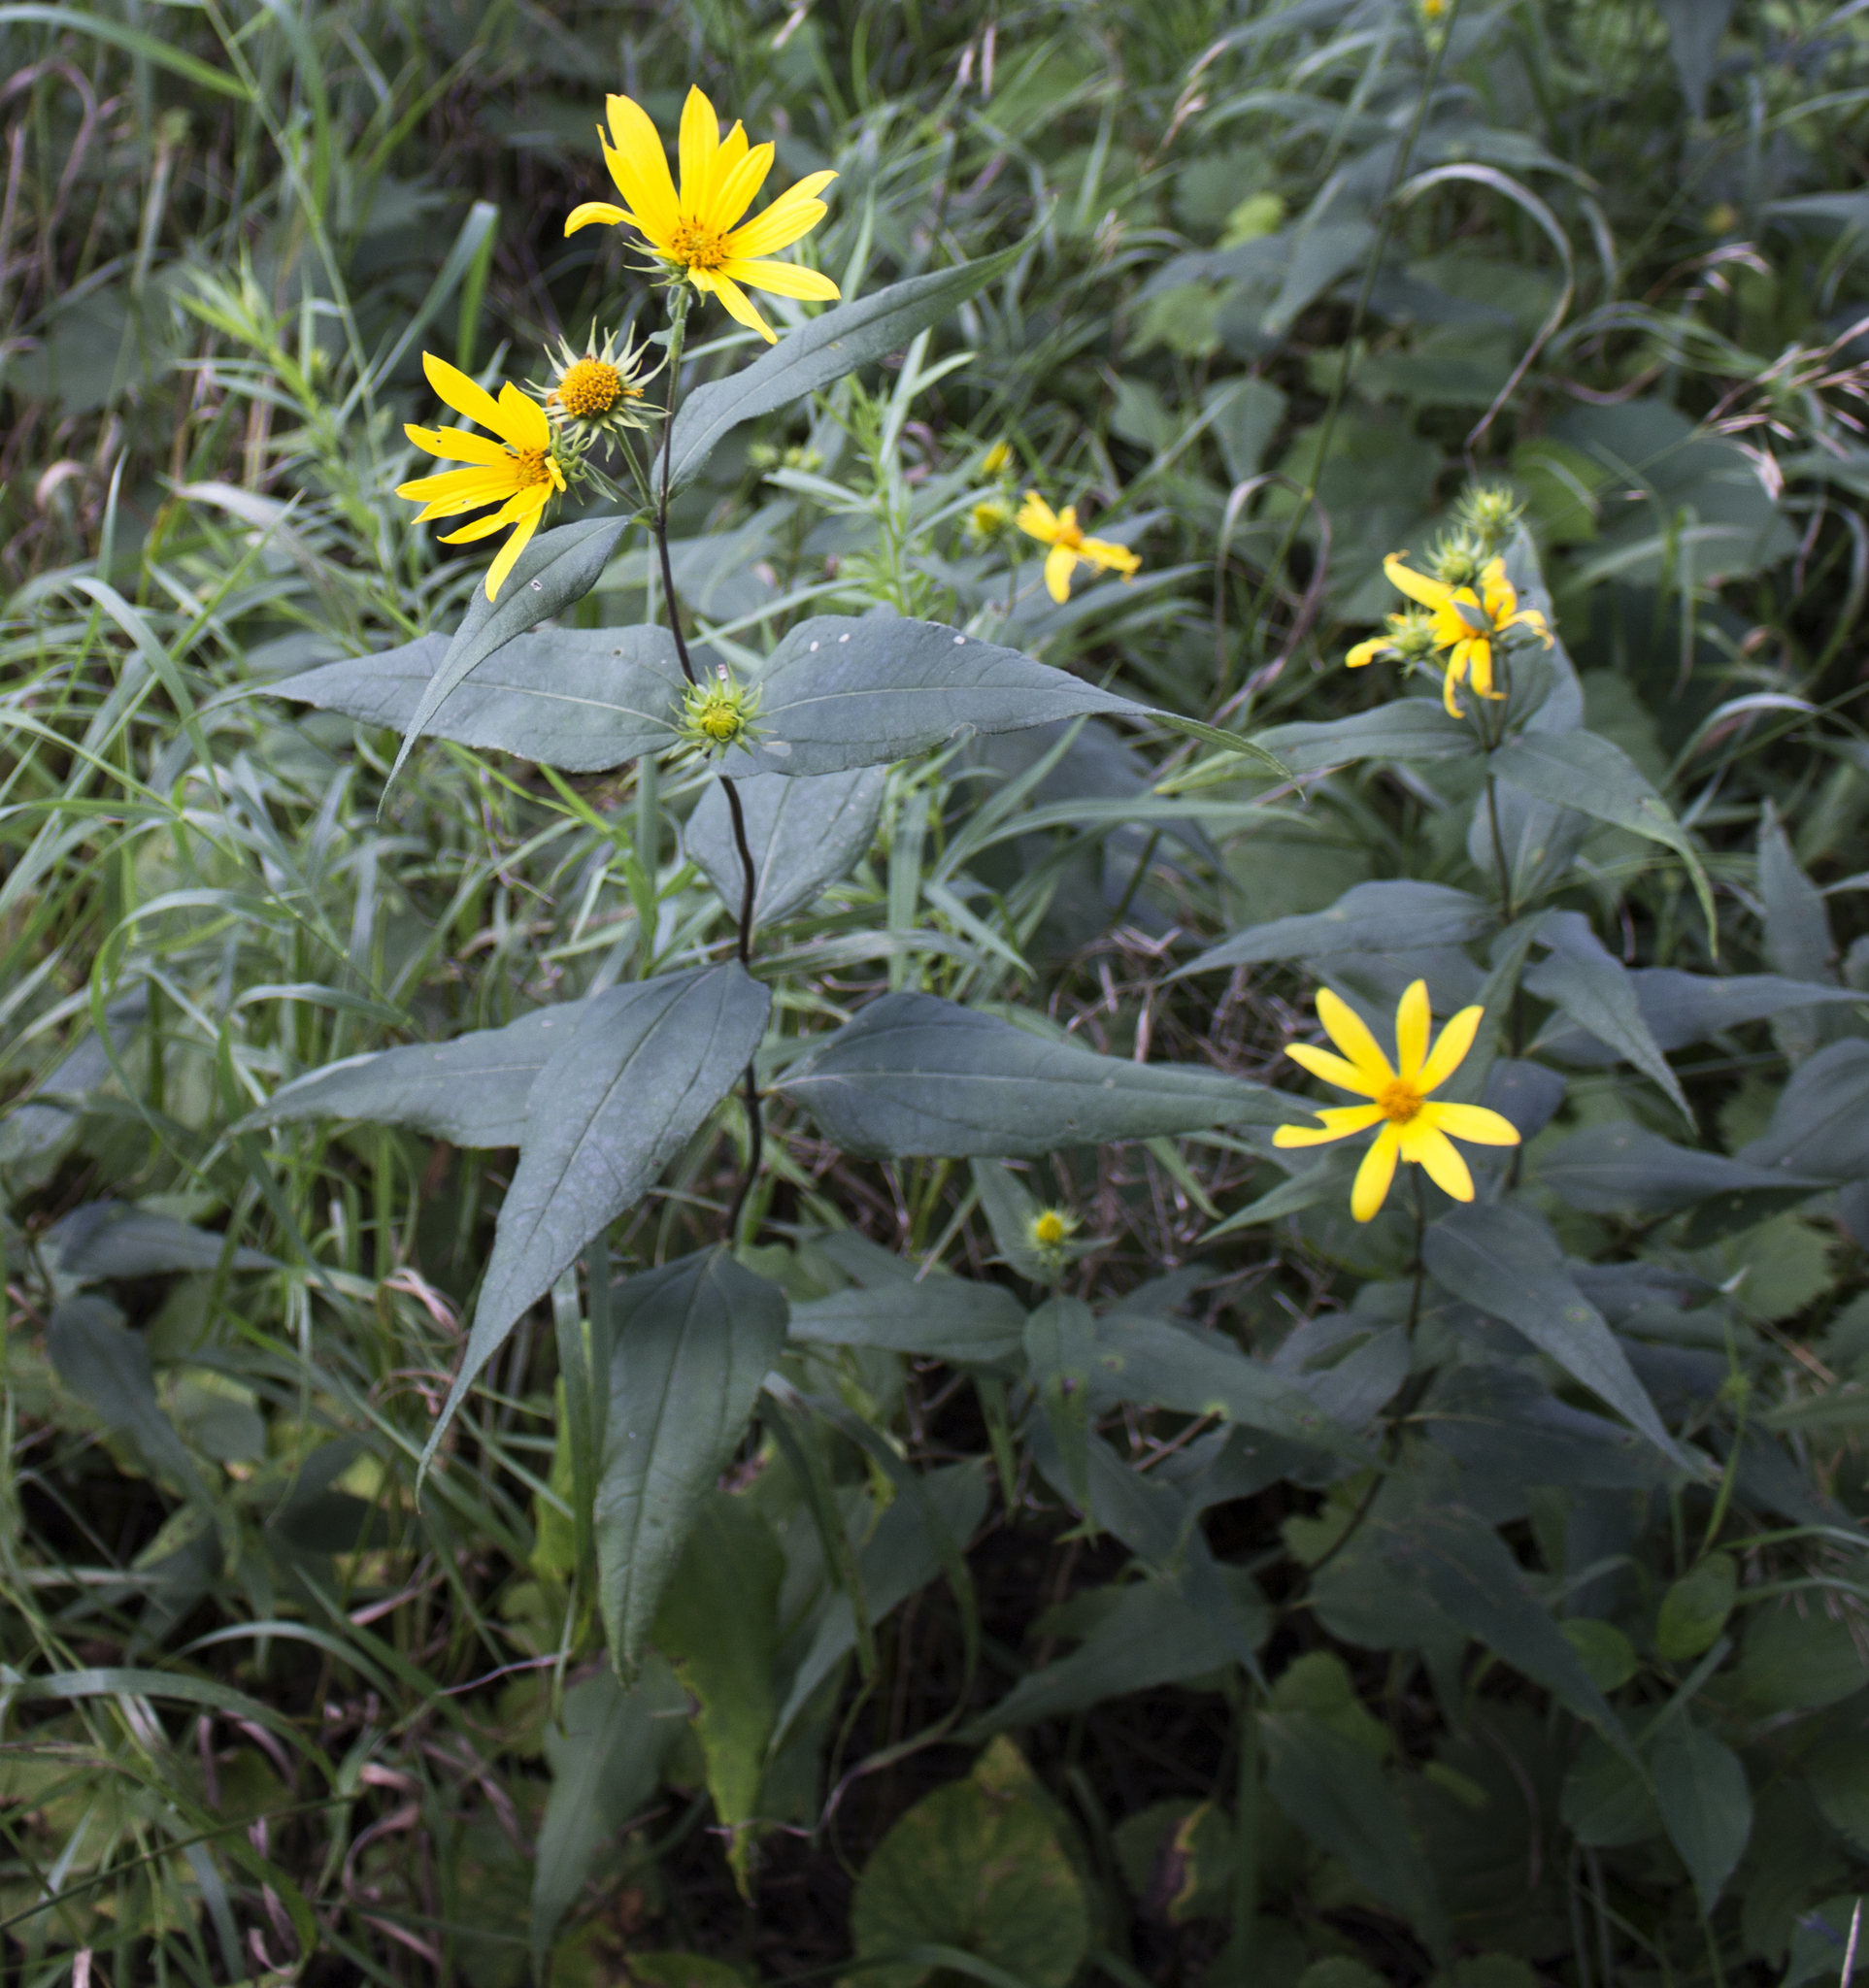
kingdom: Plantae
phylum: Tracheophyta
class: Magnoliopsida
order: Asterales
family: Asteraceae
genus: Helianthus
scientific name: Helianthus strumosus
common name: Pale-leaved sunflower
